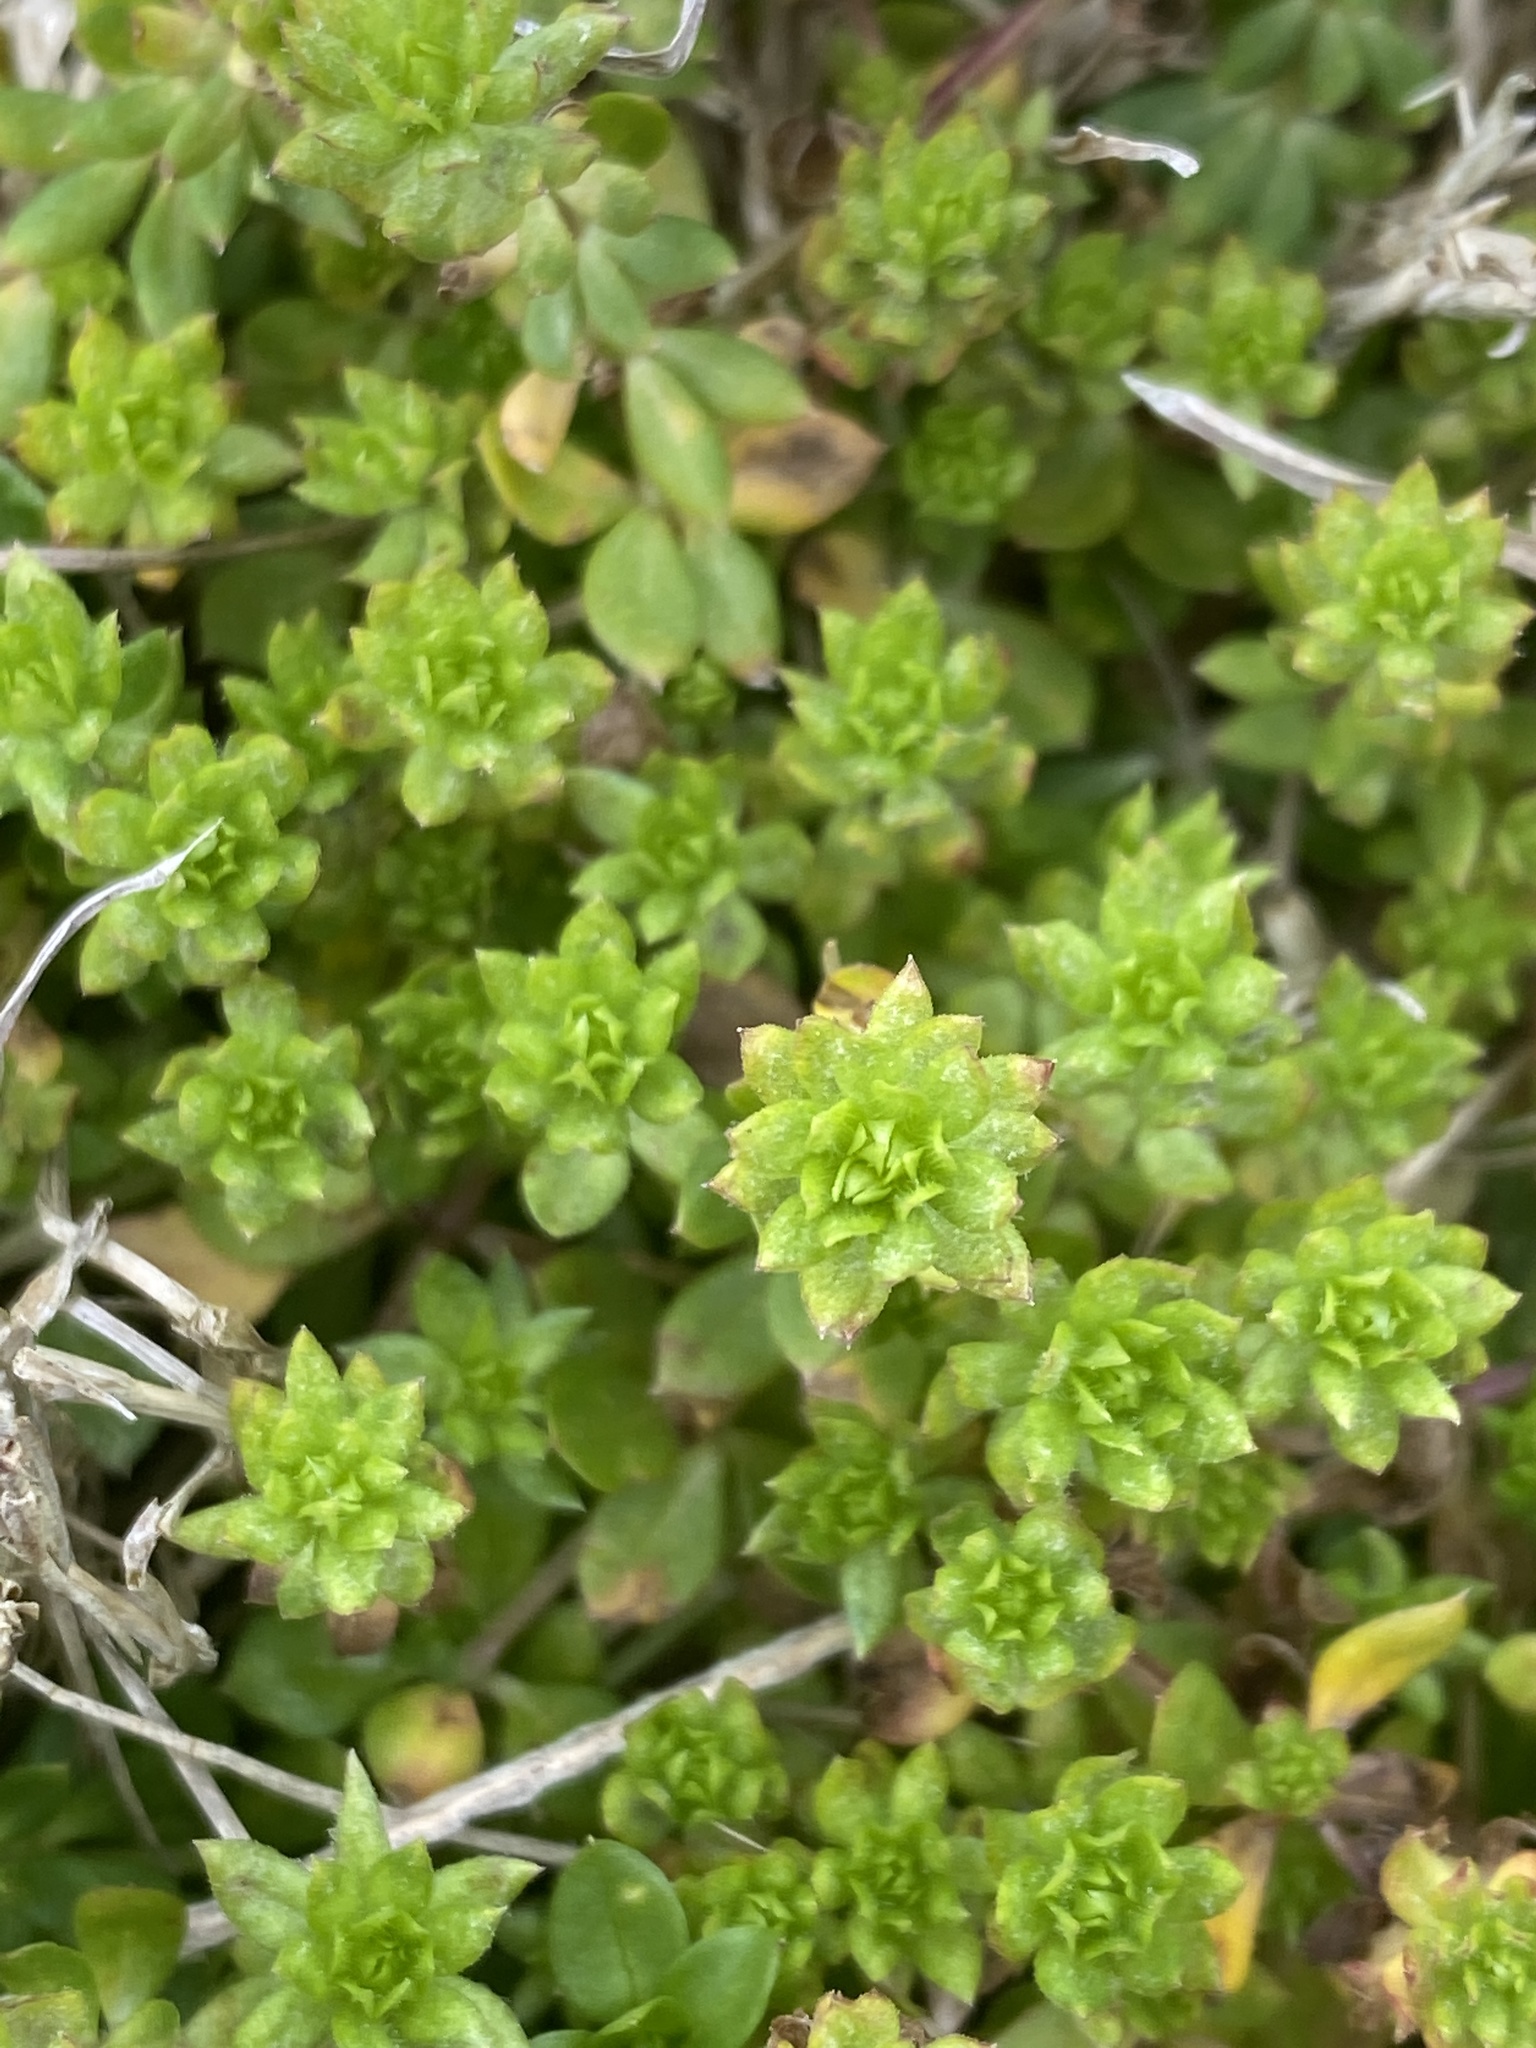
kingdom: Plantae
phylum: Tracheophyta
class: Magnoliopsida
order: Gentianales
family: Rubiaceae
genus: Sherardia
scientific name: Sherardia arvensis
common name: Field madder
